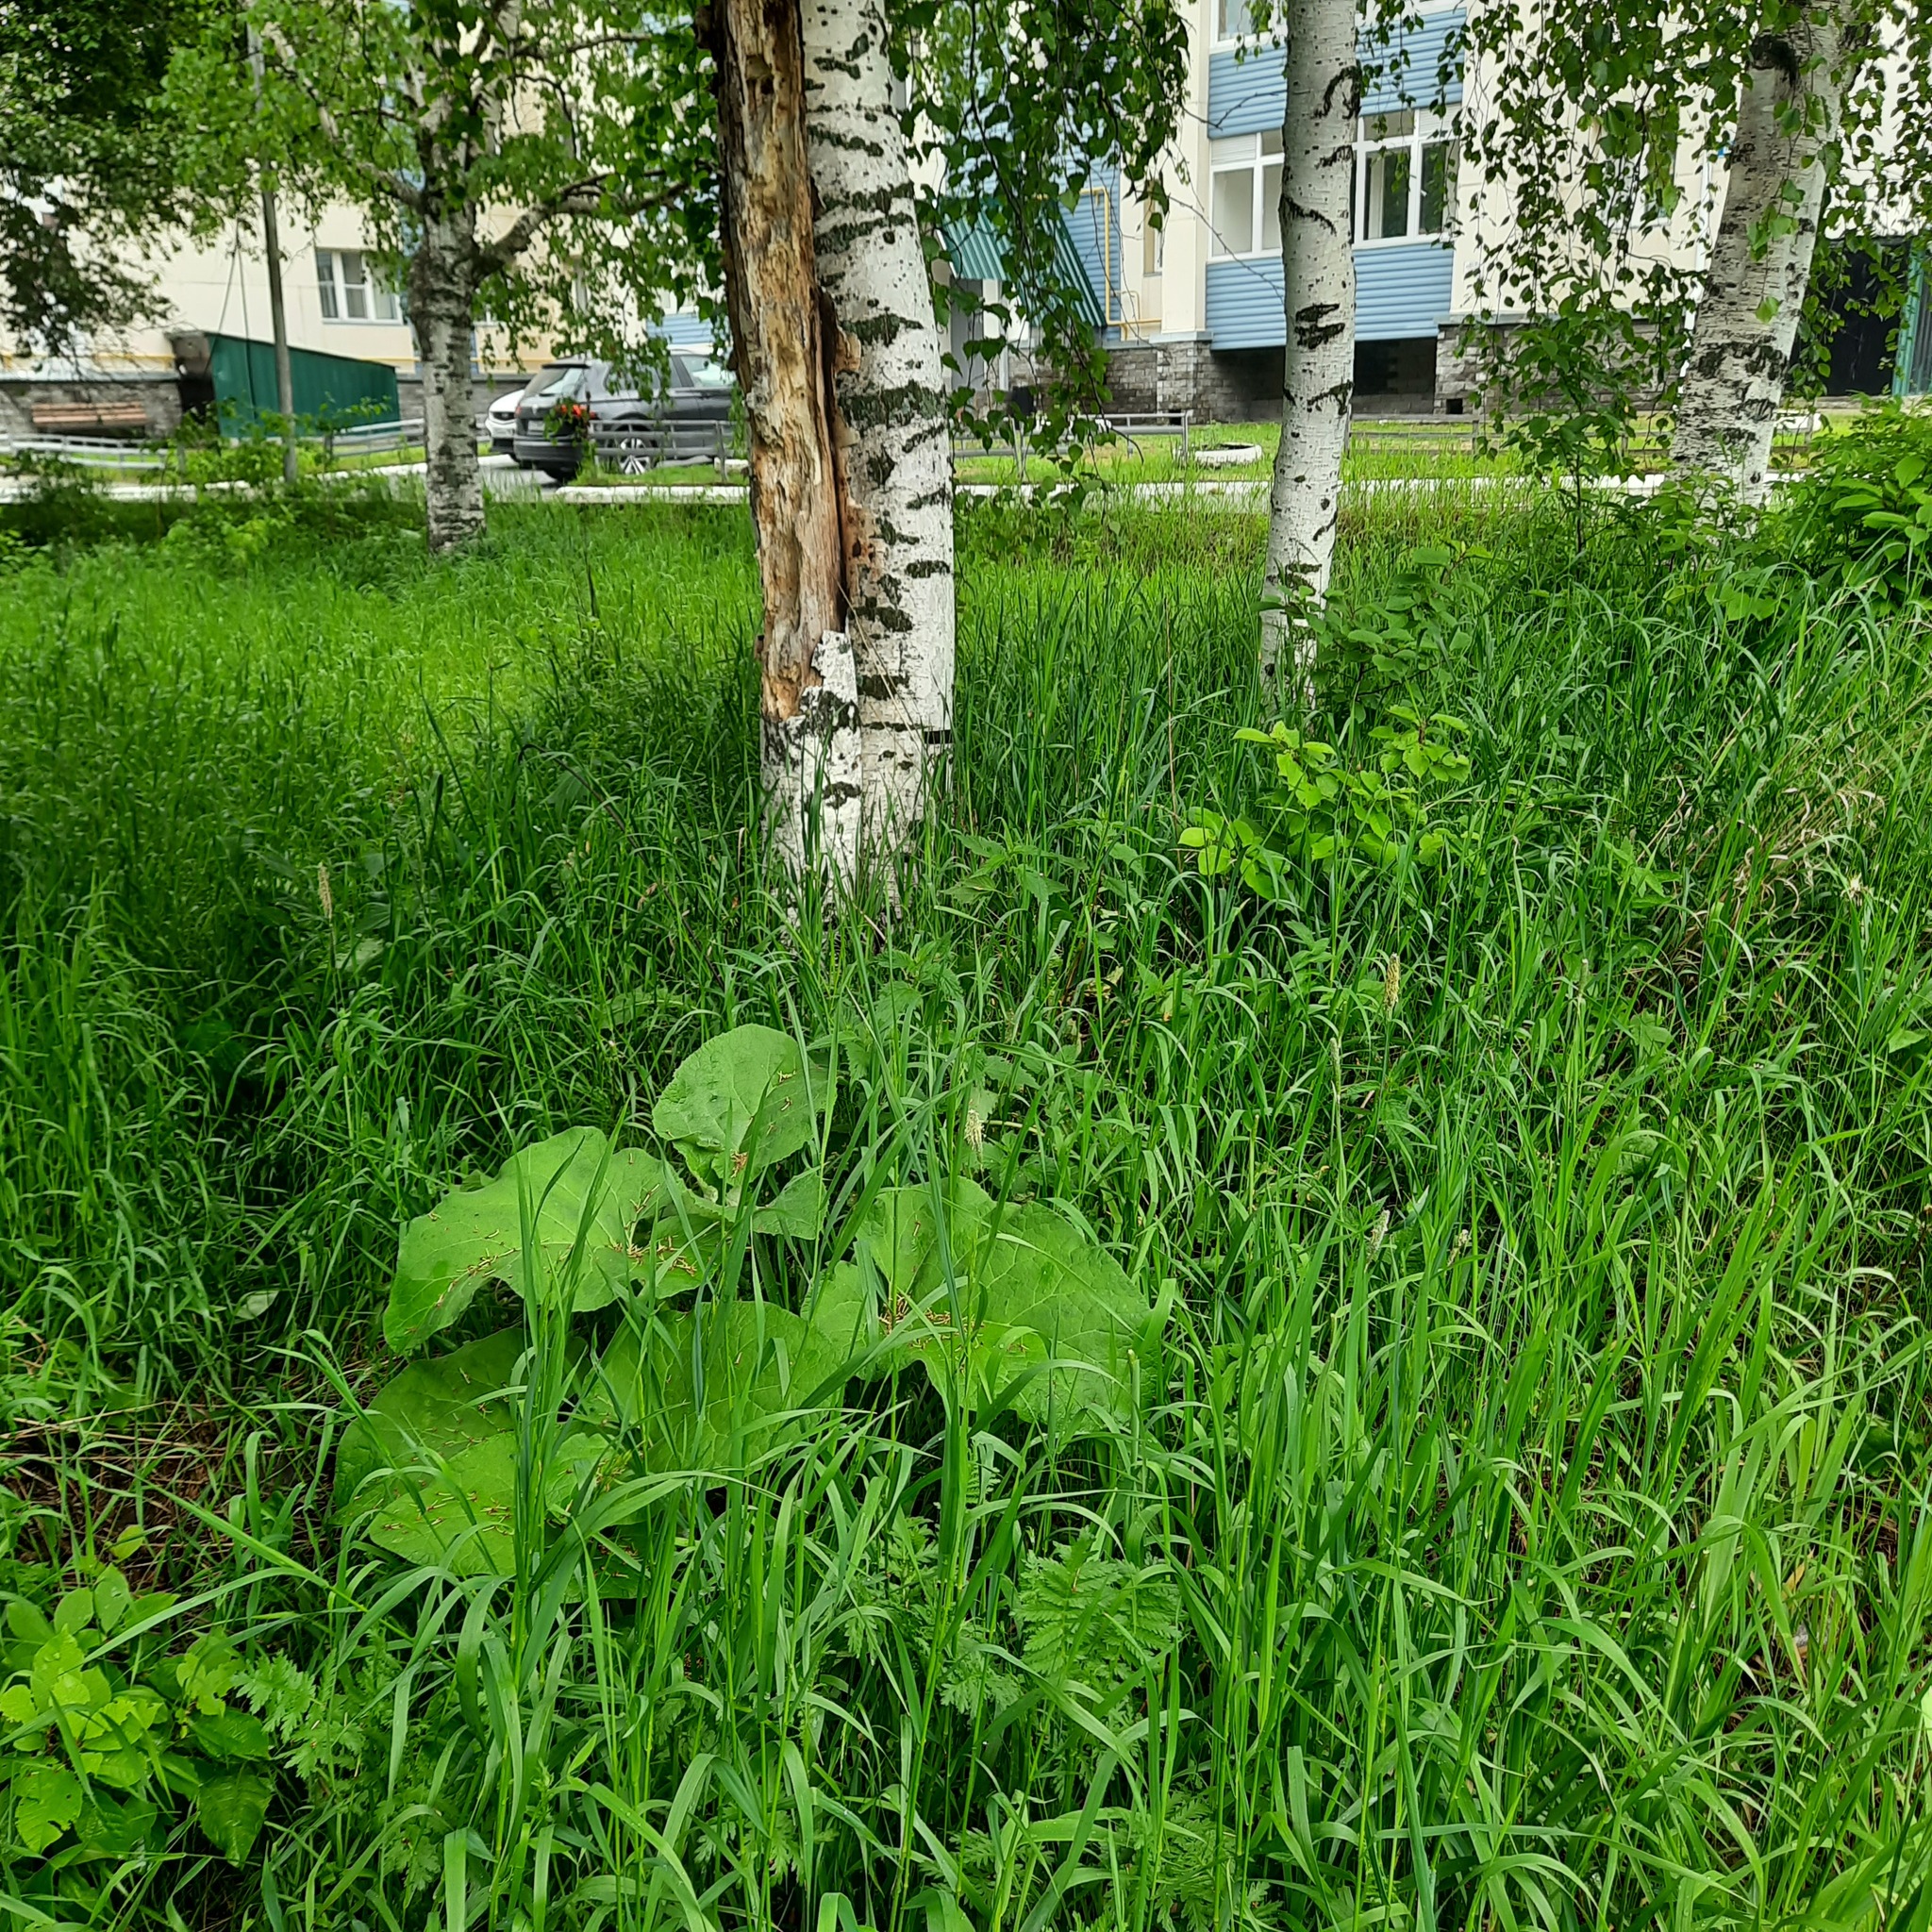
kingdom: Plantae
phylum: Tracheophyta
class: Liliopsida
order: Asparagales
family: Amaryllidaceae
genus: Allium
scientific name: Allium obliquum
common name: Oblique onion
